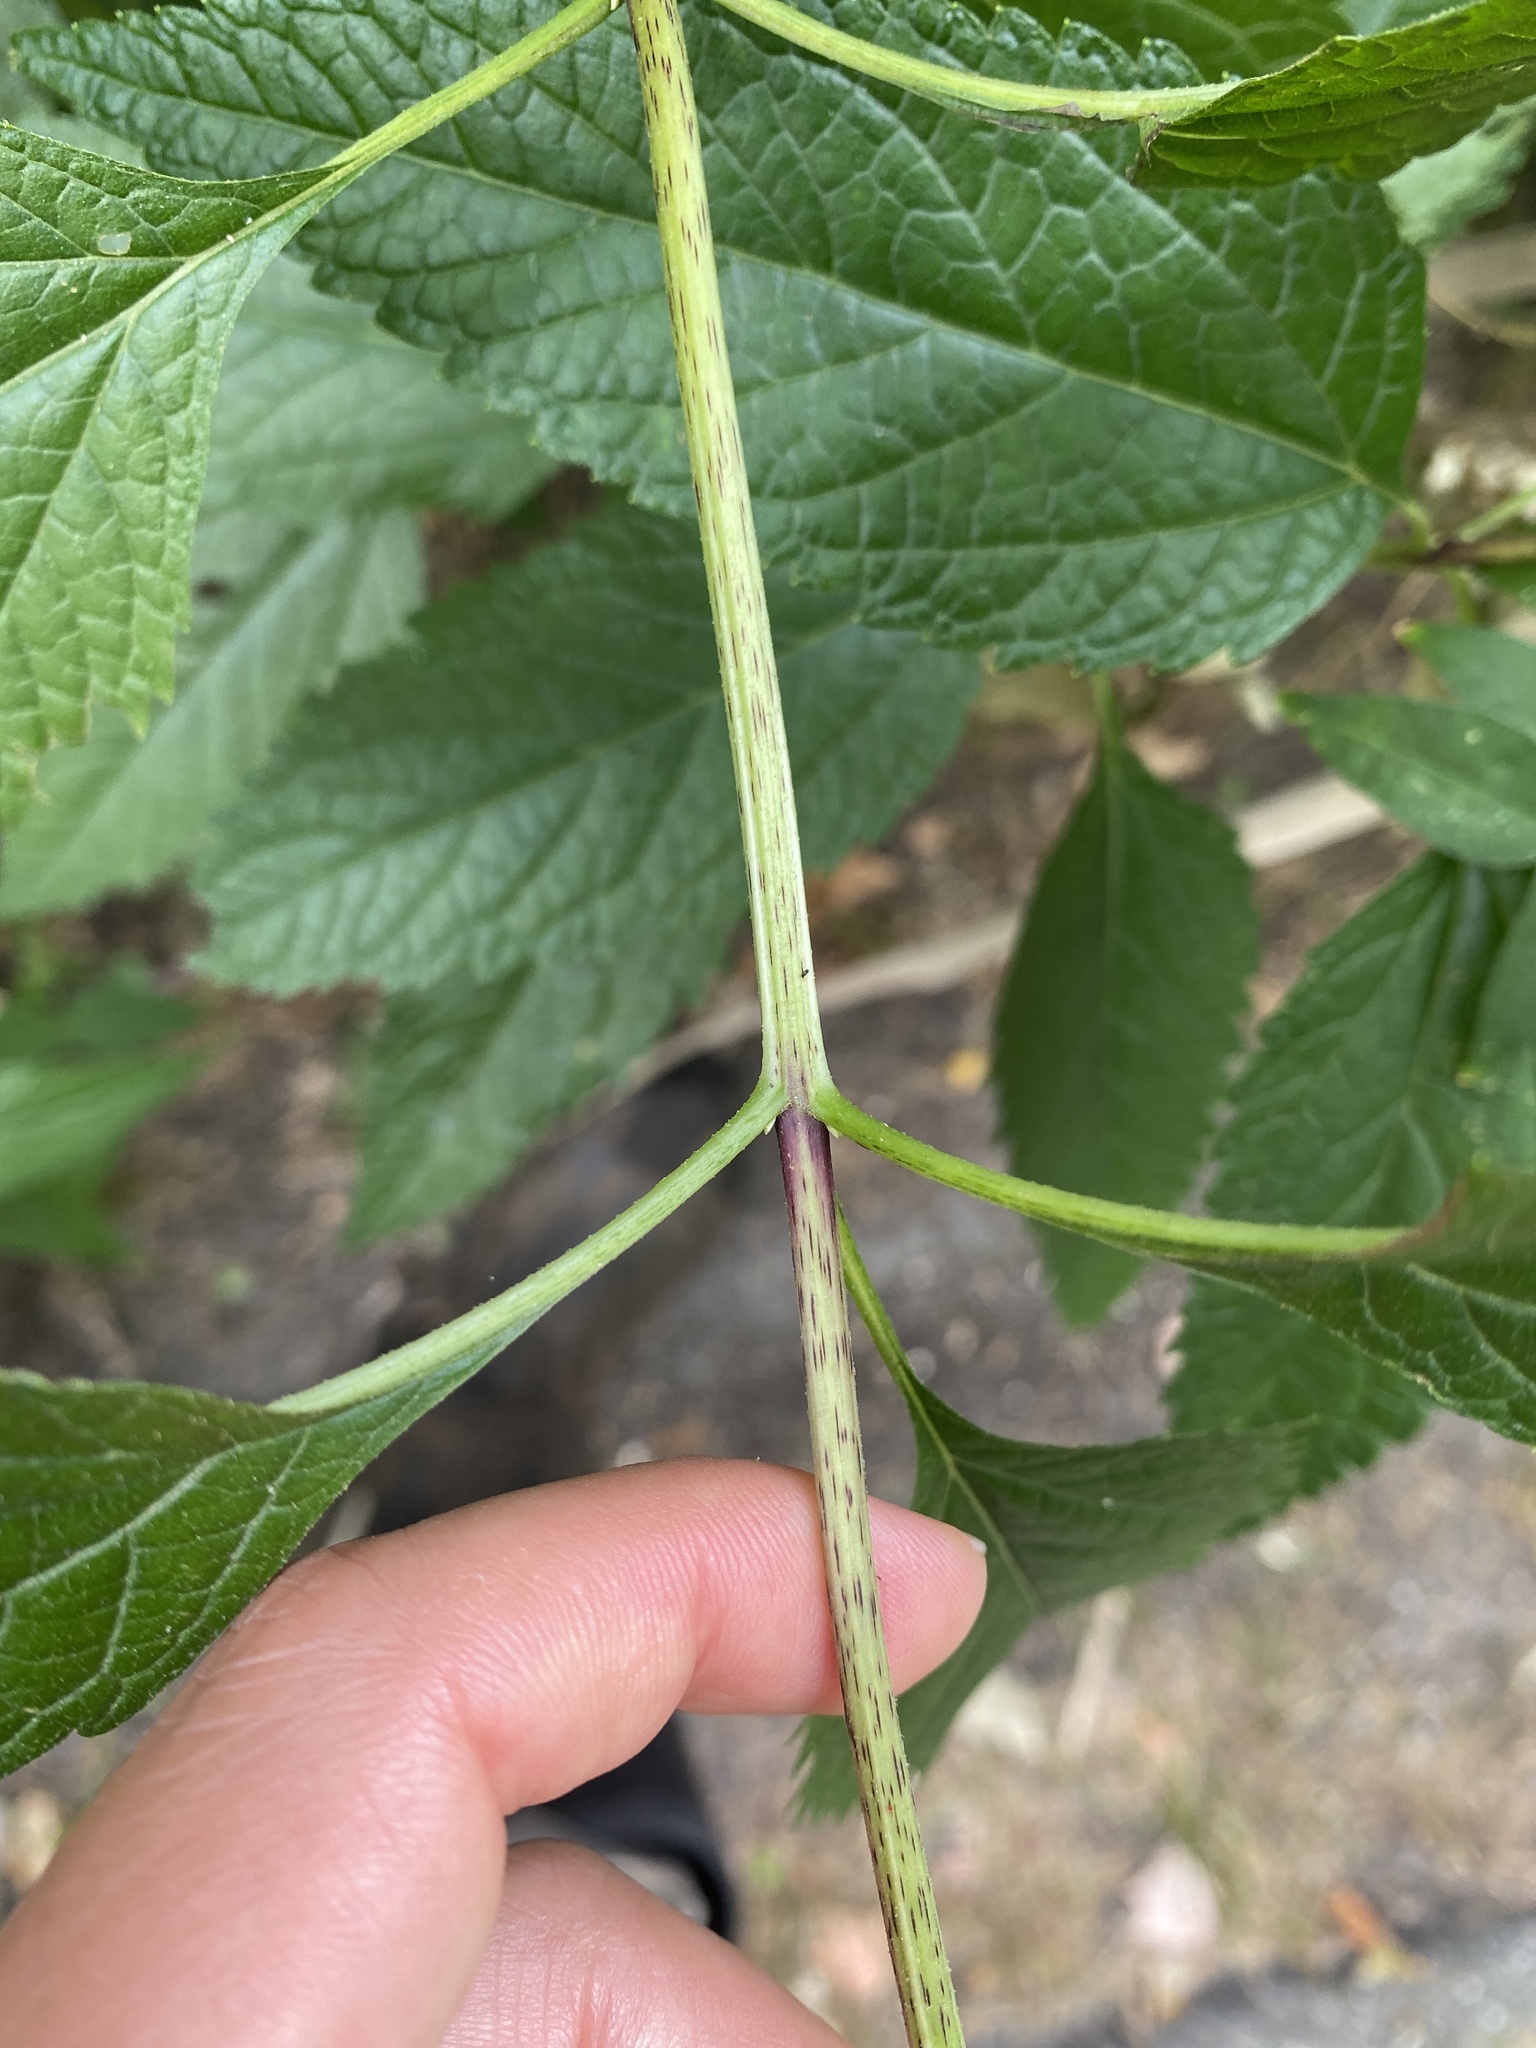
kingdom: Plantae
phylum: Tracheophyta
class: Magnoliopsida
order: Asterales
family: Asteraceae
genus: Eutrochium
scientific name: Eutrochium dubium
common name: Coastal plain joe pye weed
